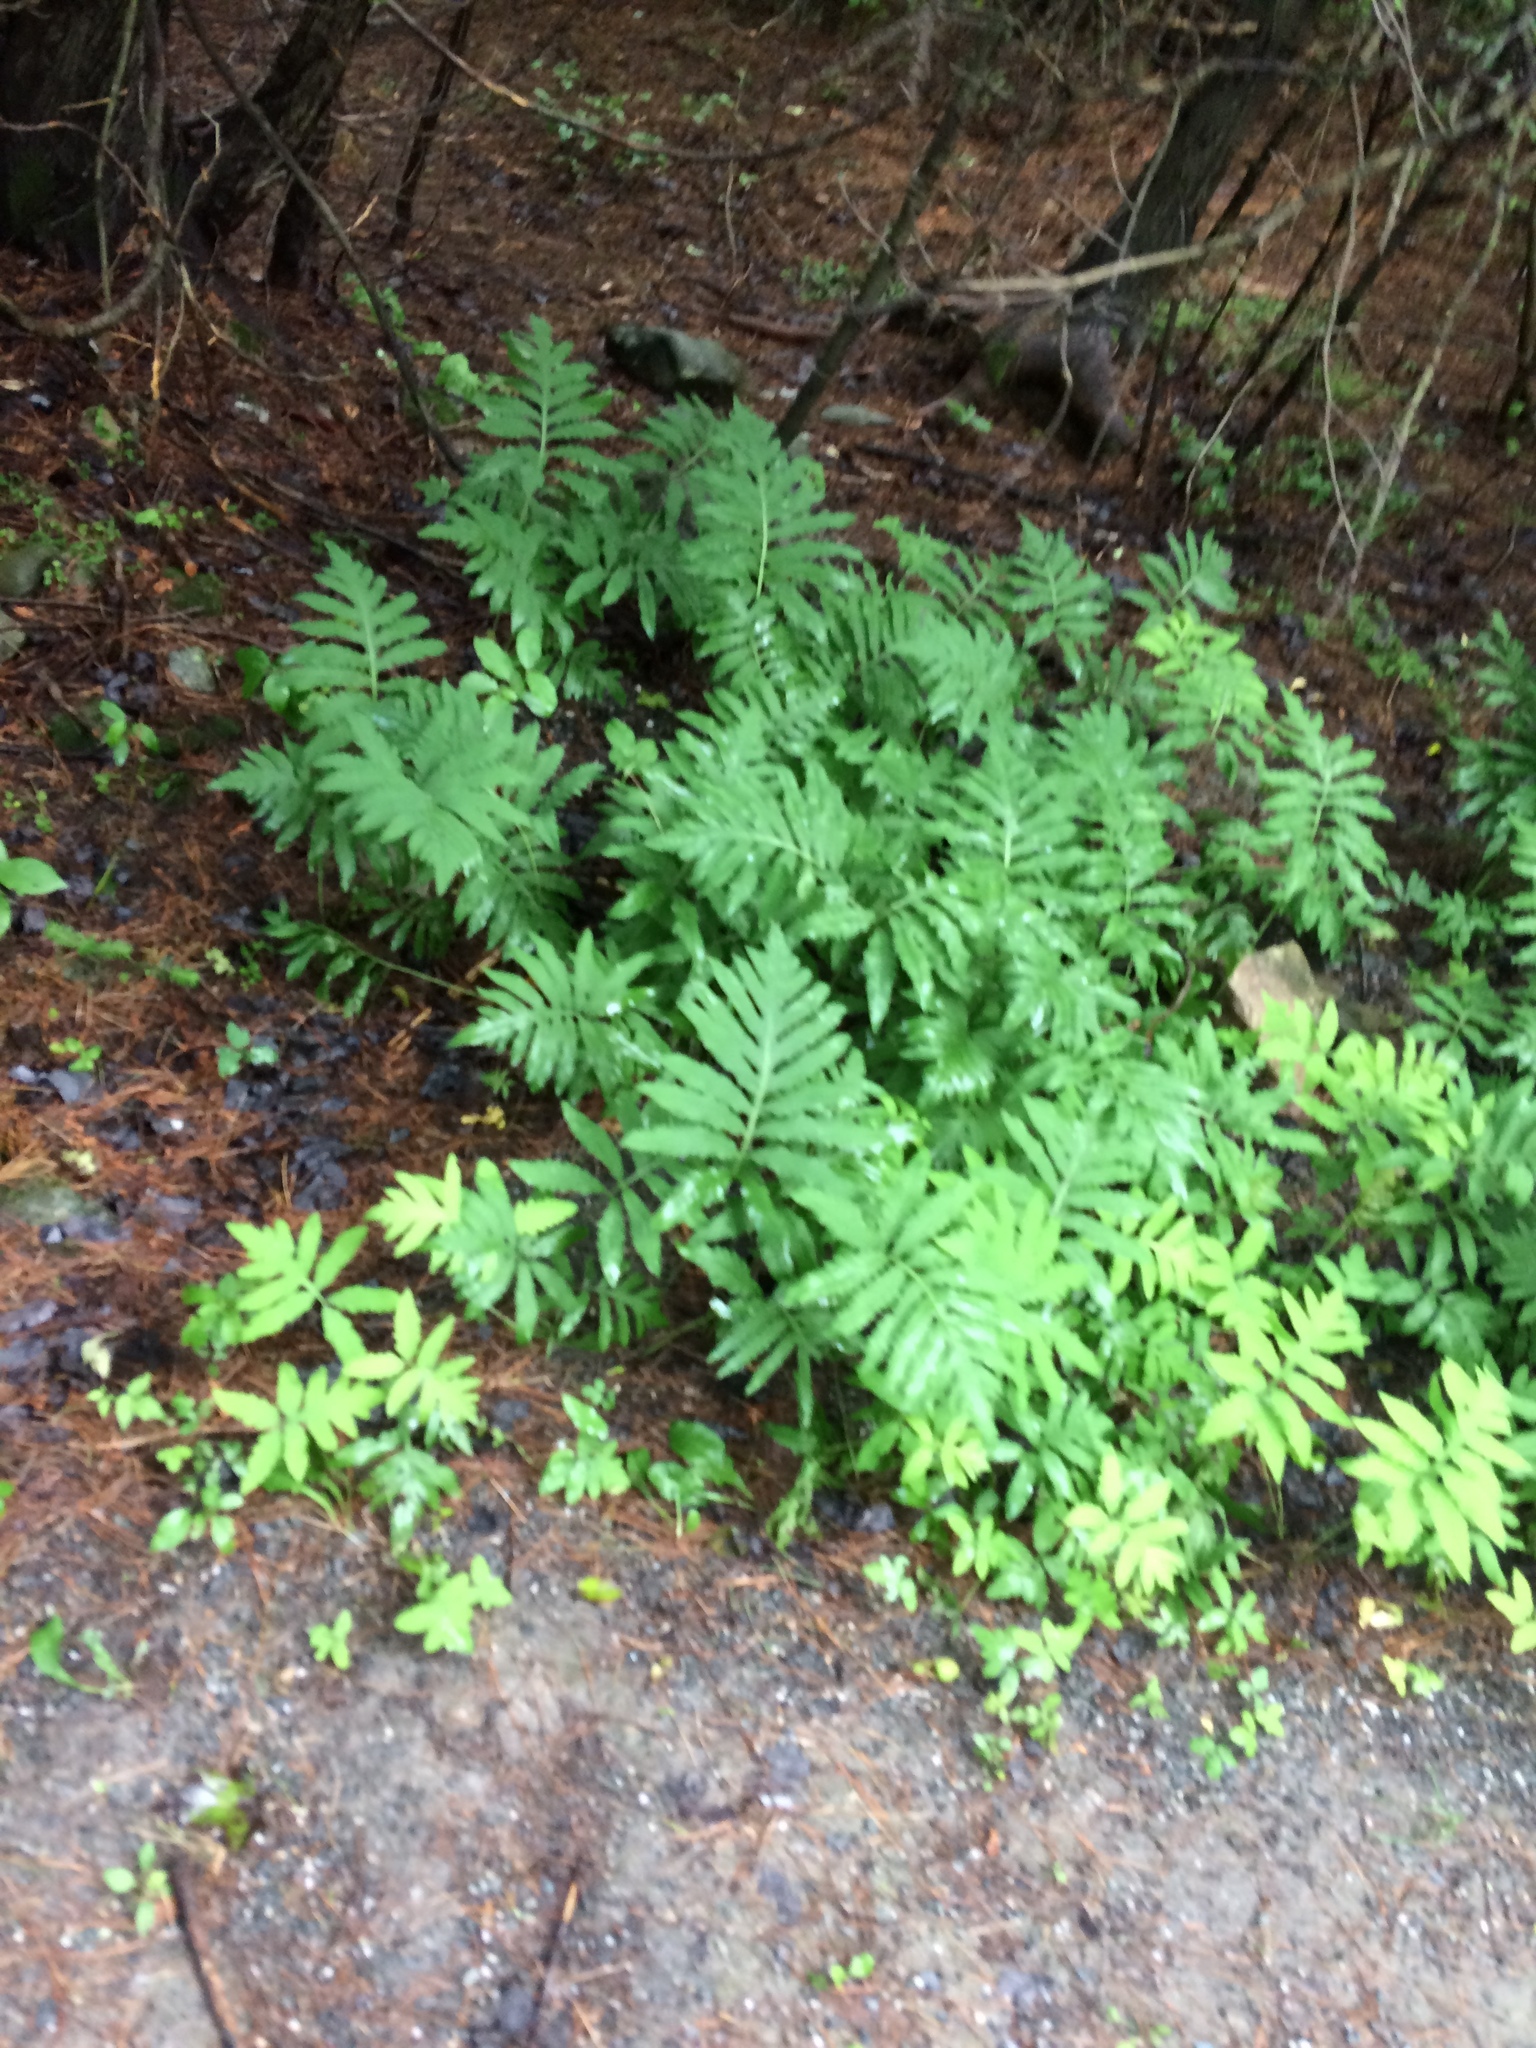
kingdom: Plantae
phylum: Tracheophyta
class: Polypodiopsida
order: Polypodiales
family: Onocleaceae
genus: Onoclea
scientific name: Onoclea sensibilis
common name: Sensitive fern
